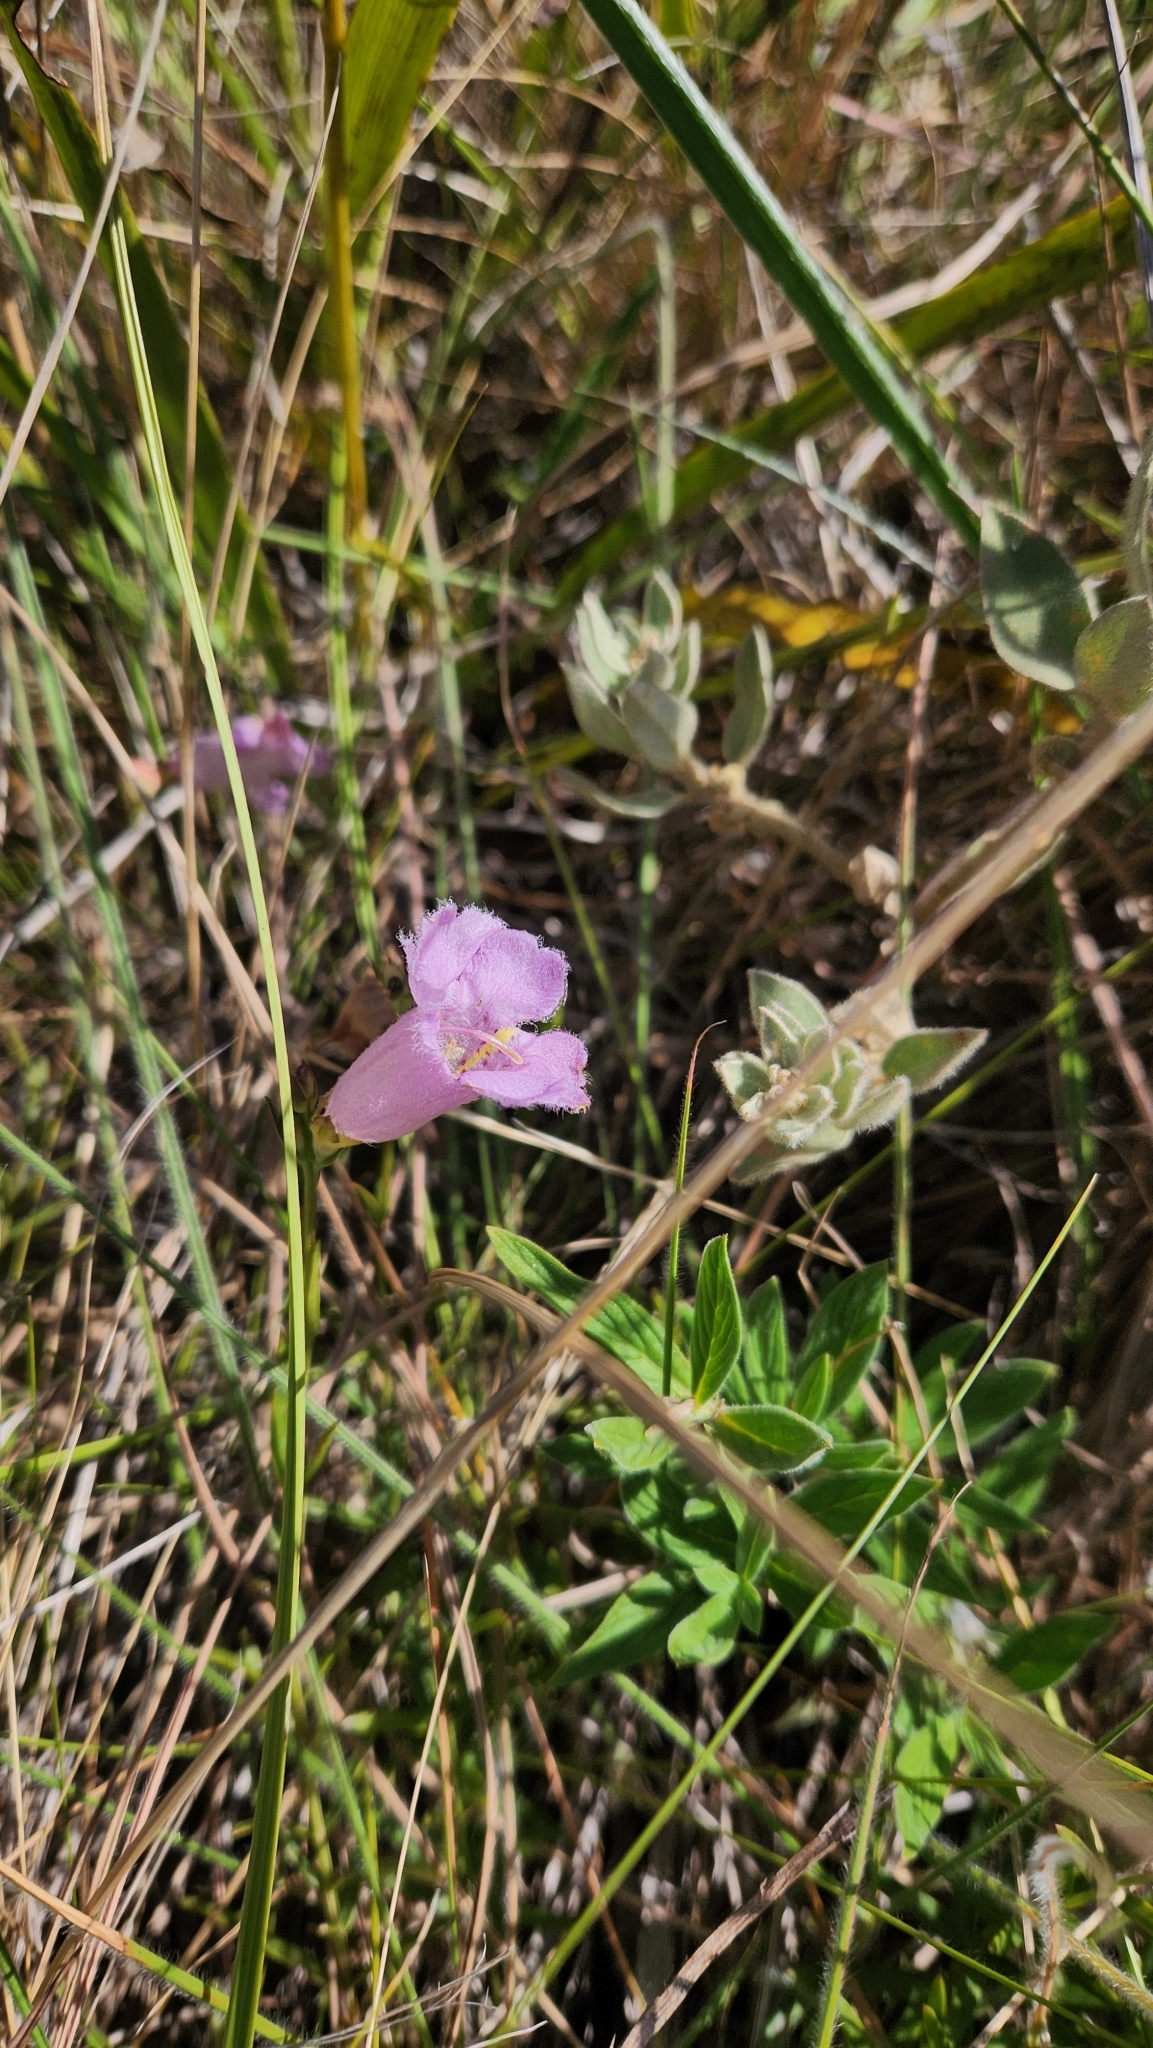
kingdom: Plantae
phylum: Tracheophyta
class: Magnoliopsida
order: Lamiales
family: Orobanchaceae
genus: Agalinis
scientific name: Agalinis digitalis
